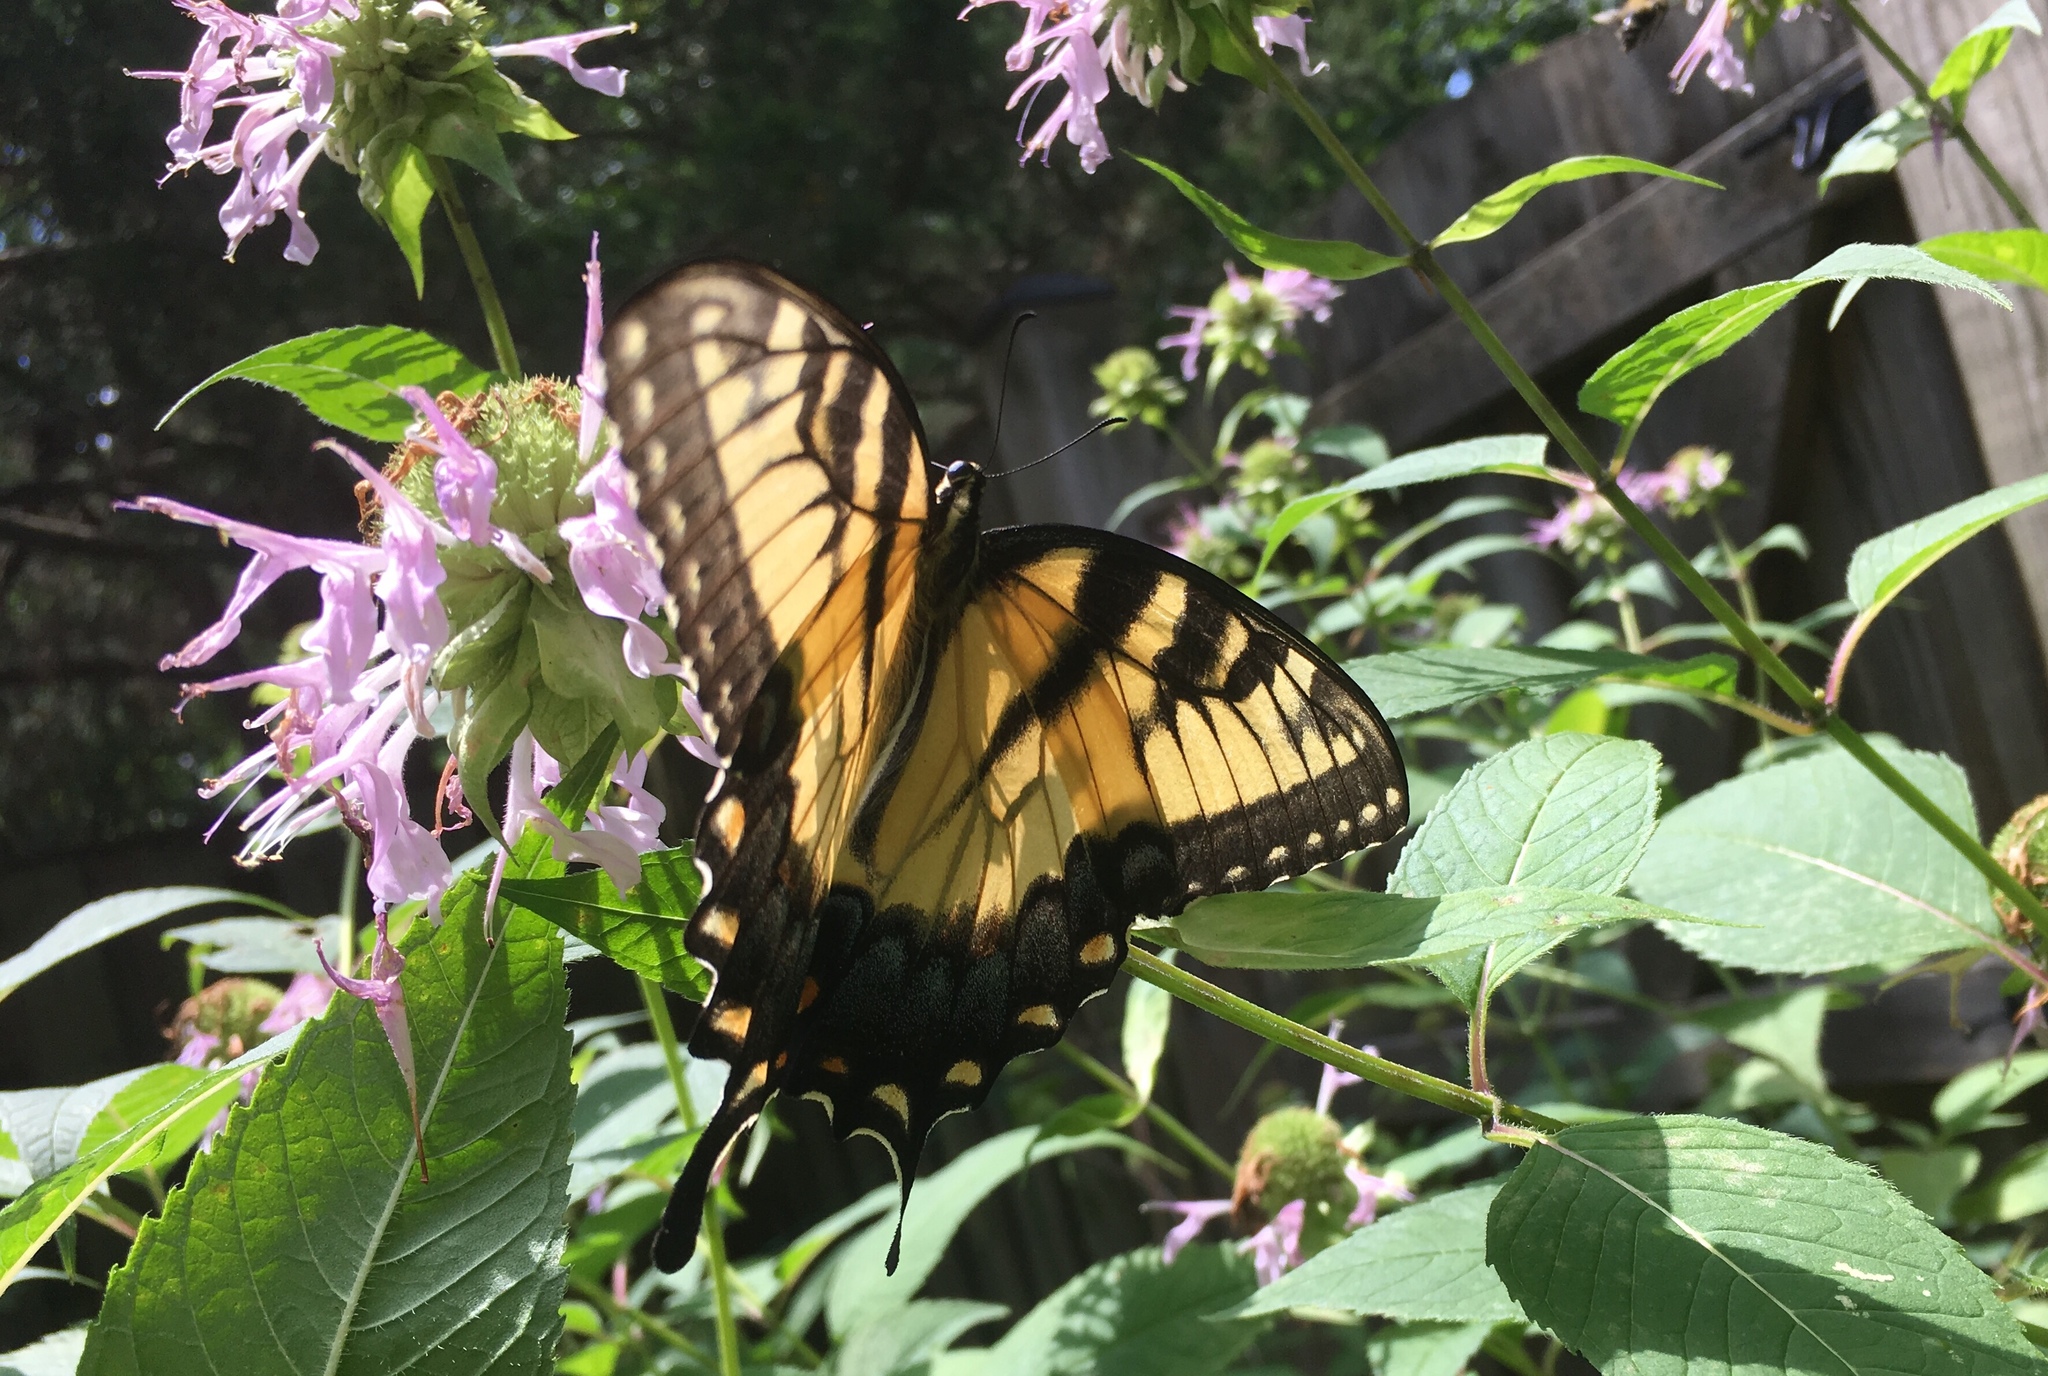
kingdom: Animalia
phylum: Arthropoda
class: Insecta
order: Lepidoptera
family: Papilionidae
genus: Papilio
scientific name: Papilio glaucus
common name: Tiger swallowtail
